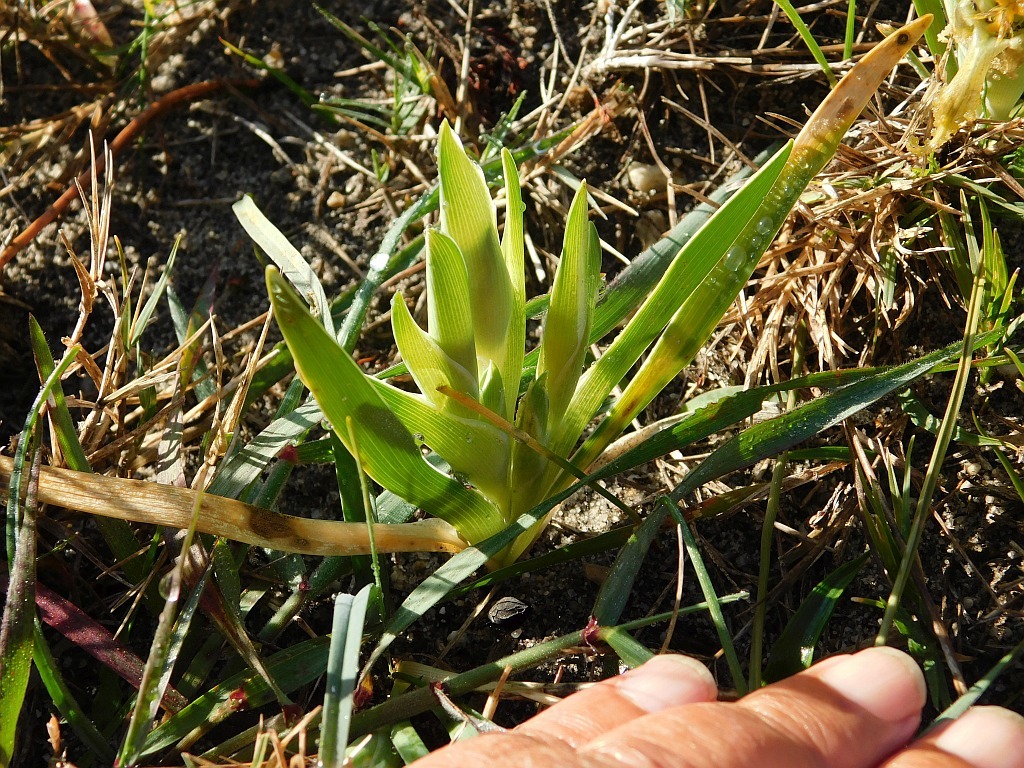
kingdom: Plantae
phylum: Tracheophyta
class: Liliopsida
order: Asparagales
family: Iridaceae
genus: Ferraria
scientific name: Ferraria variabilis
